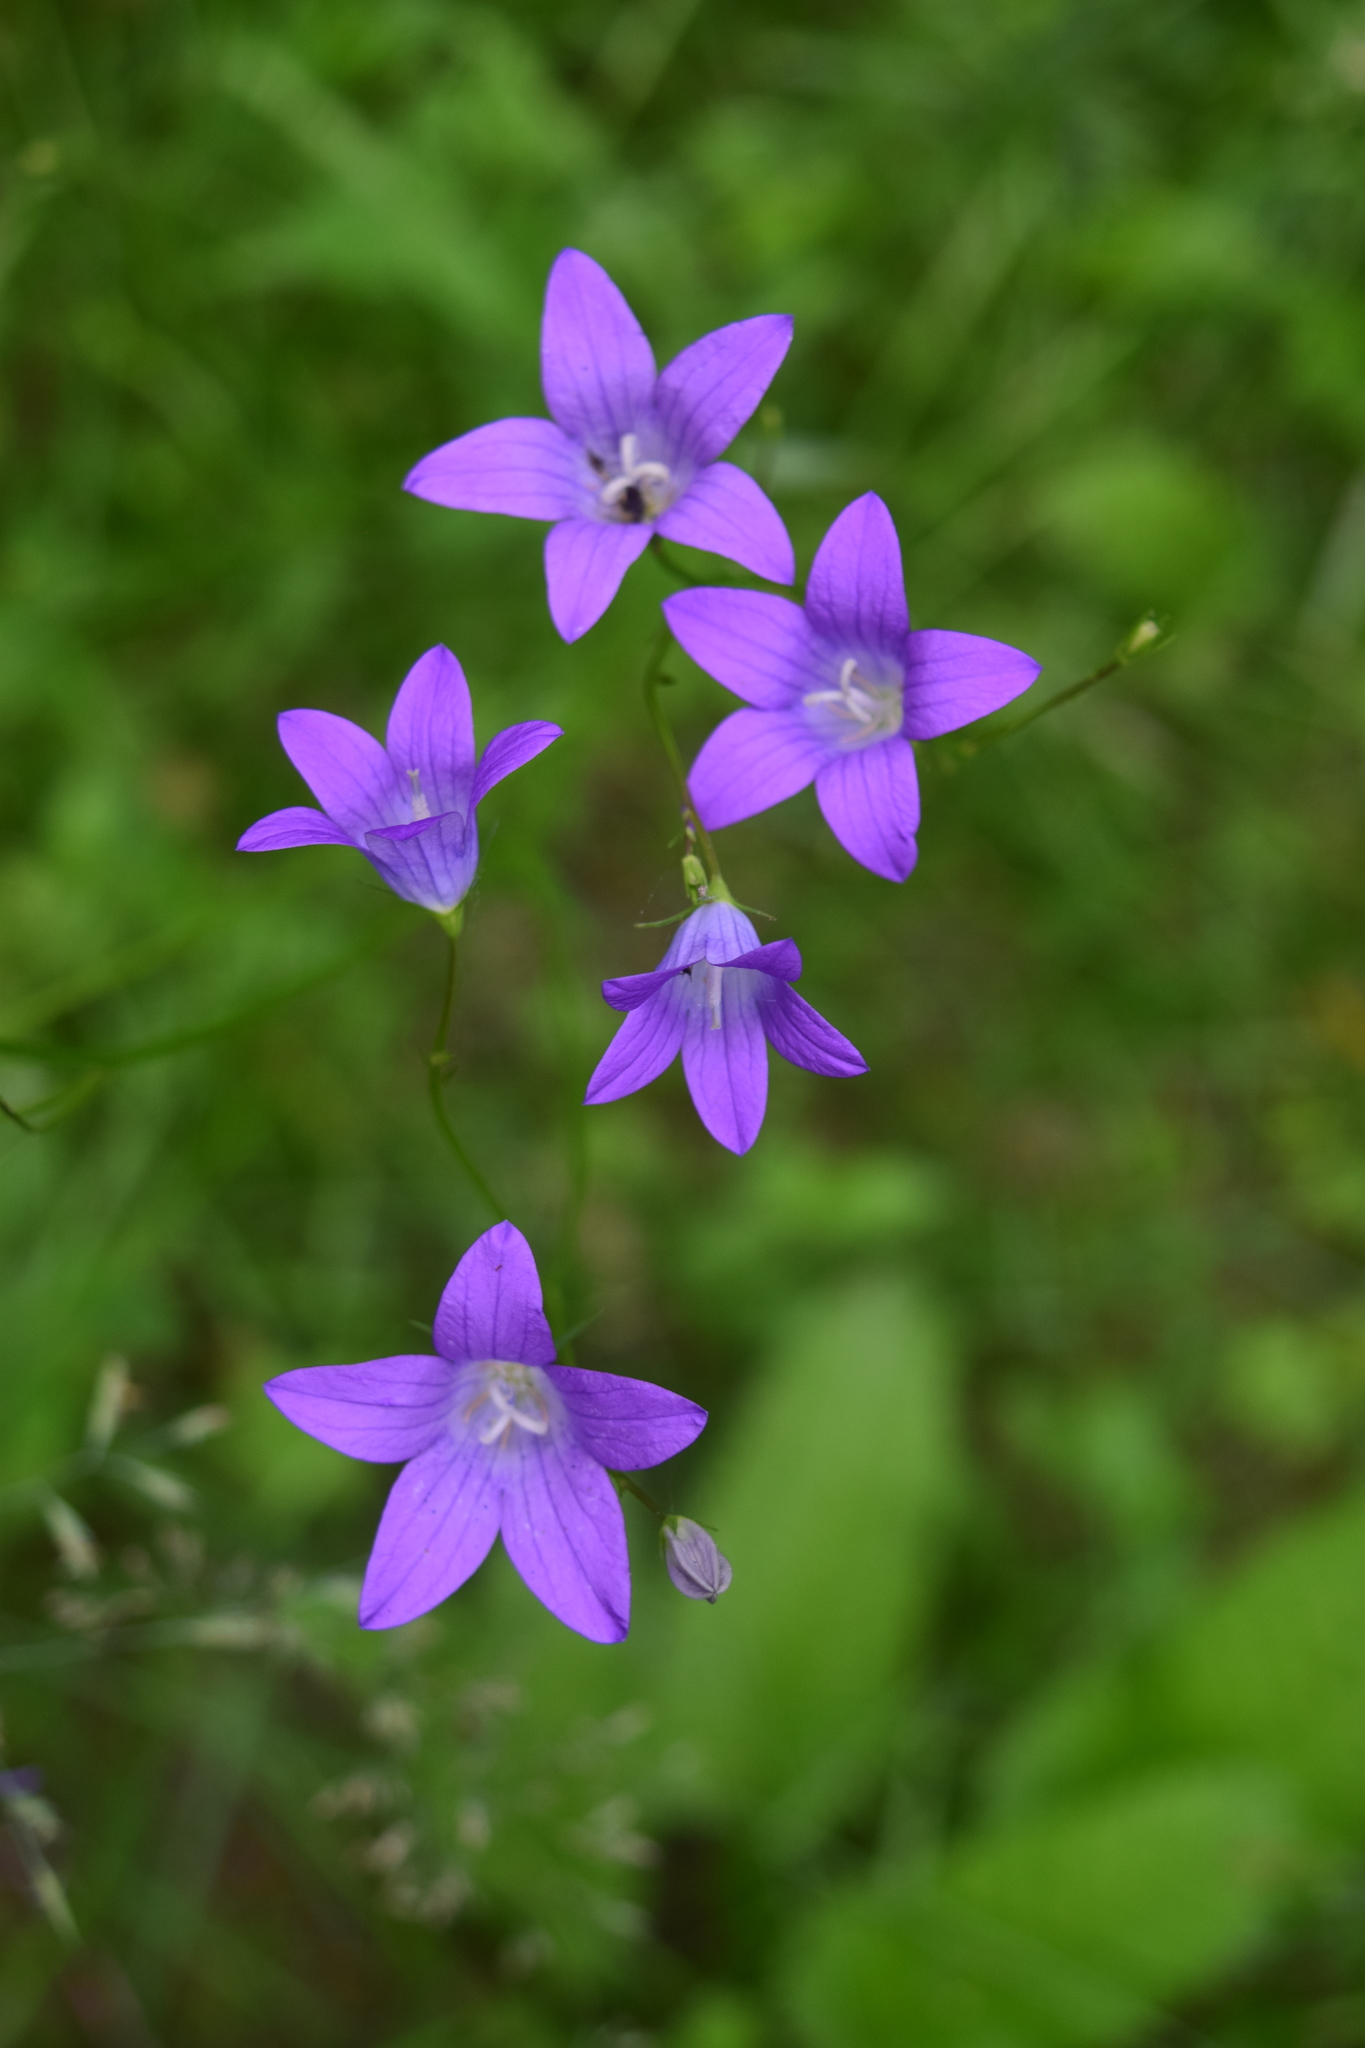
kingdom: Plantae
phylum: Tracheophyta
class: Magnoliopsida
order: Asterales
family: Campanulaceae
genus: Campanula
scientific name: Campanula patula
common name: Spreading bellflower
